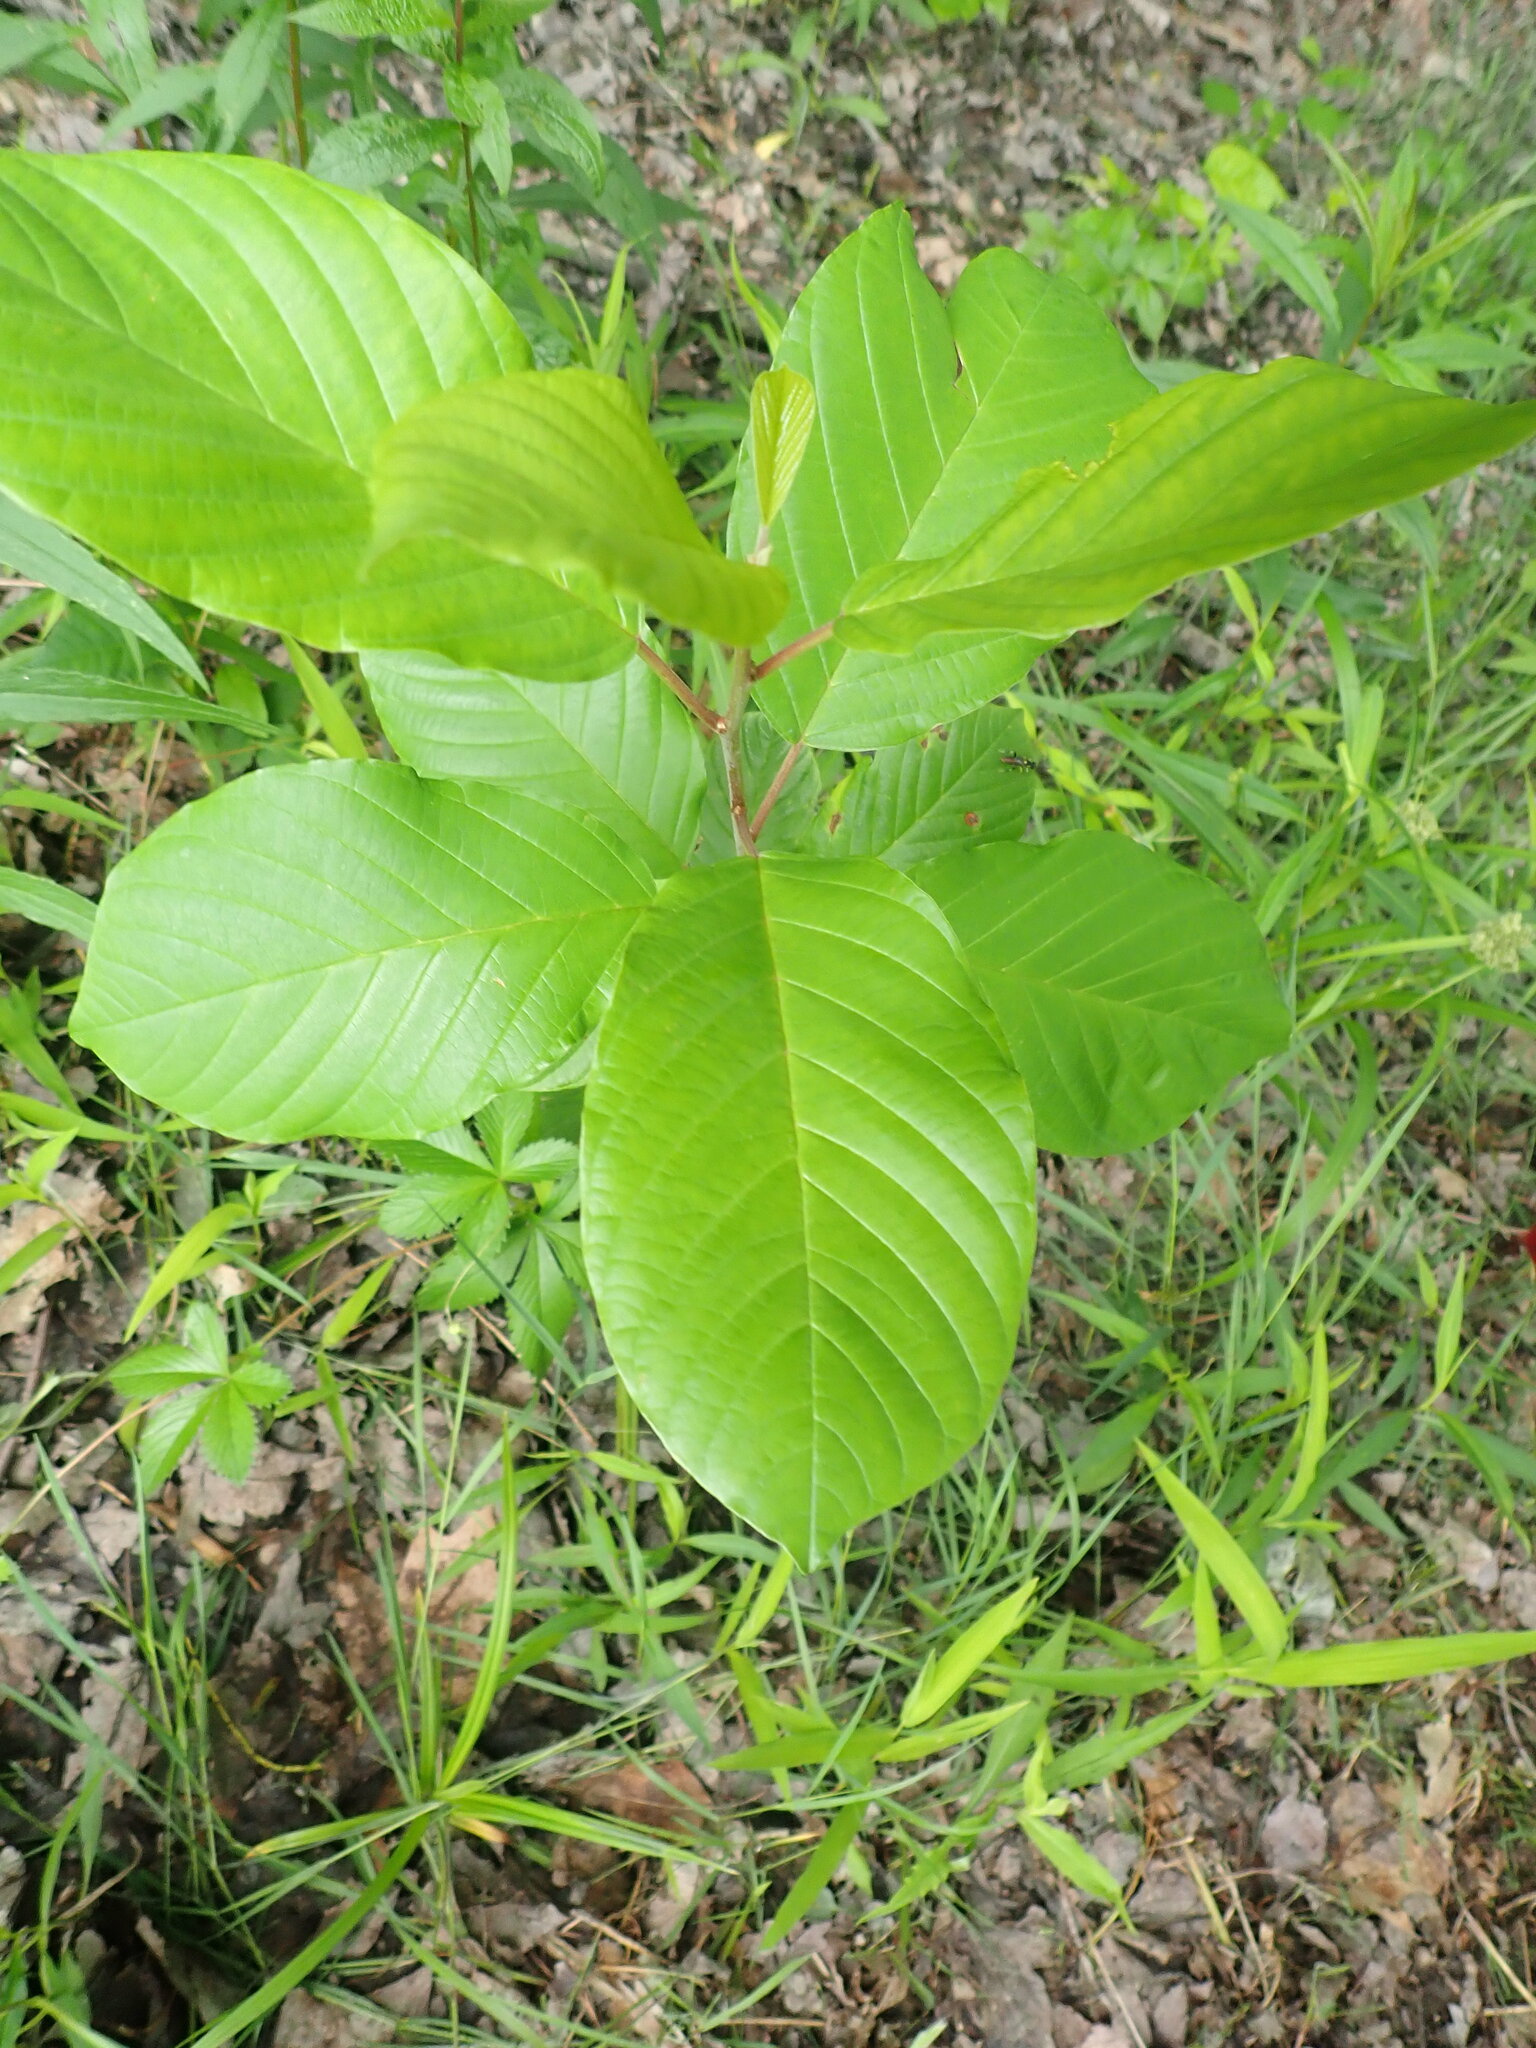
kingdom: Plantae
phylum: Tracheophyta
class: Magnoliopsida
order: Rosales
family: Rhamnaceae
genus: Frangula
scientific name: Frangula alnus
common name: Alder buckthorn
